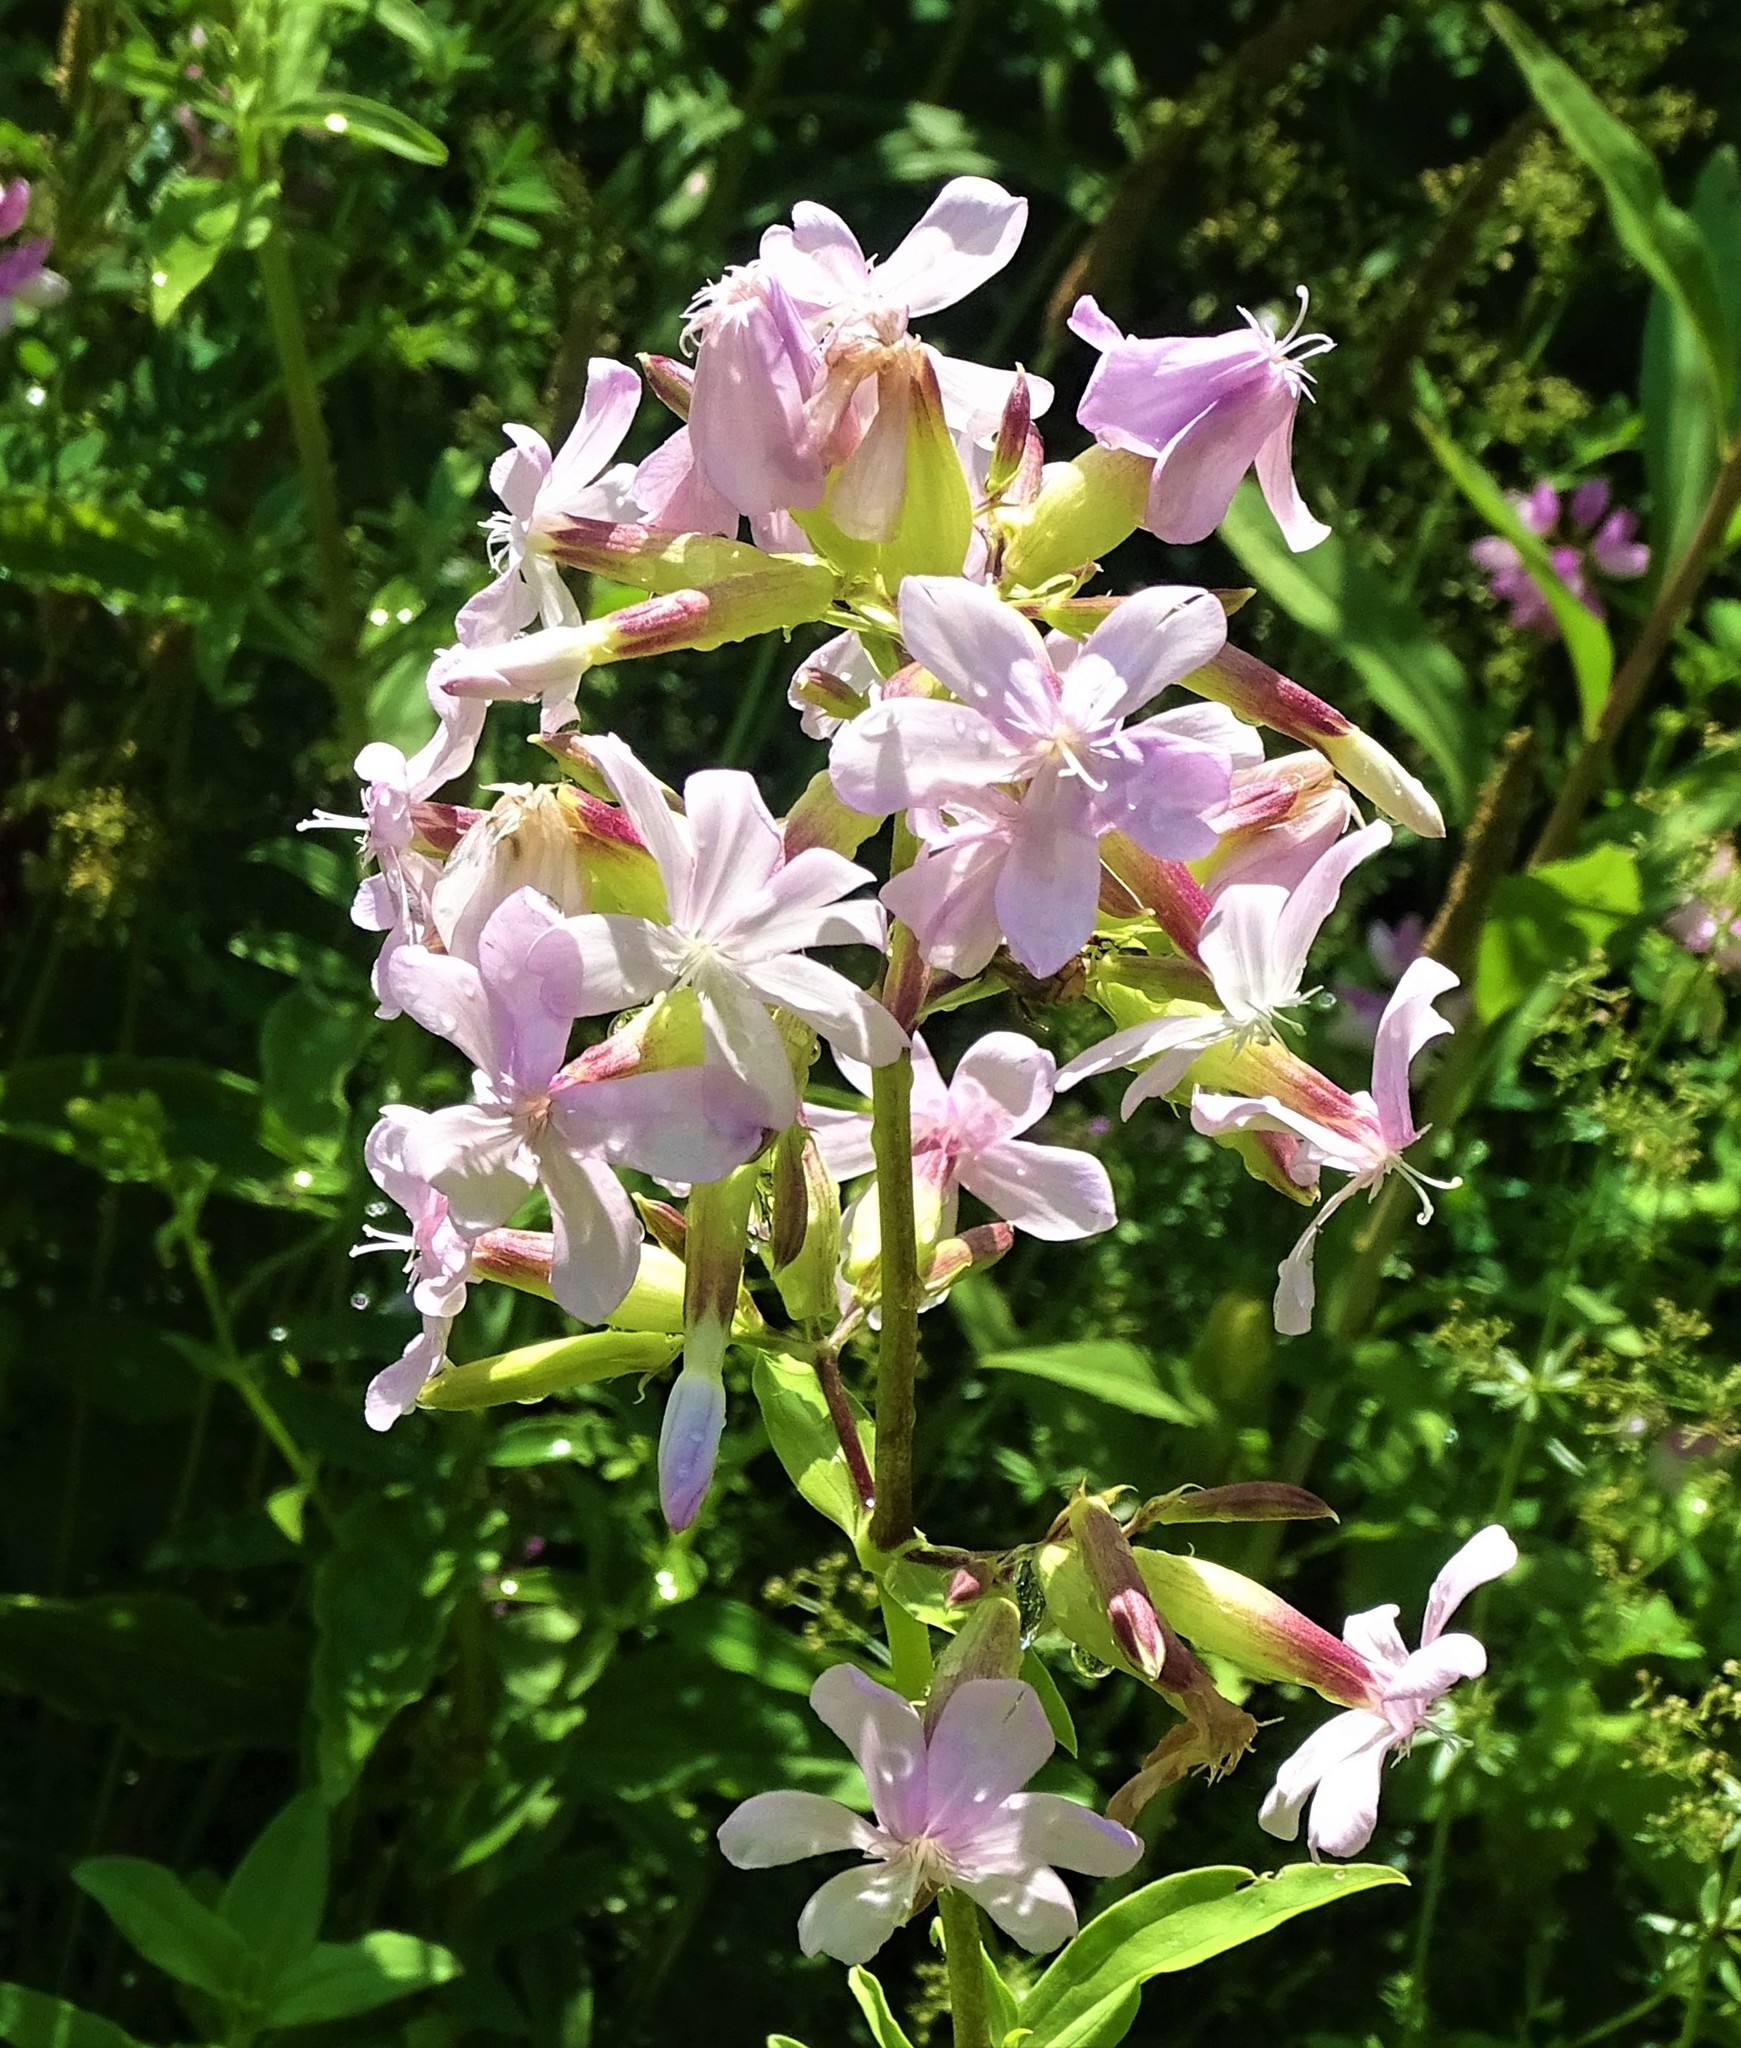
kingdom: Plantae
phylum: Tracheophyta
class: Magnoliopsida
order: Caryophyllales
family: Caryophyllaceae
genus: Saponaria
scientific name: Saponaria officinalis
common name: Soapwort
